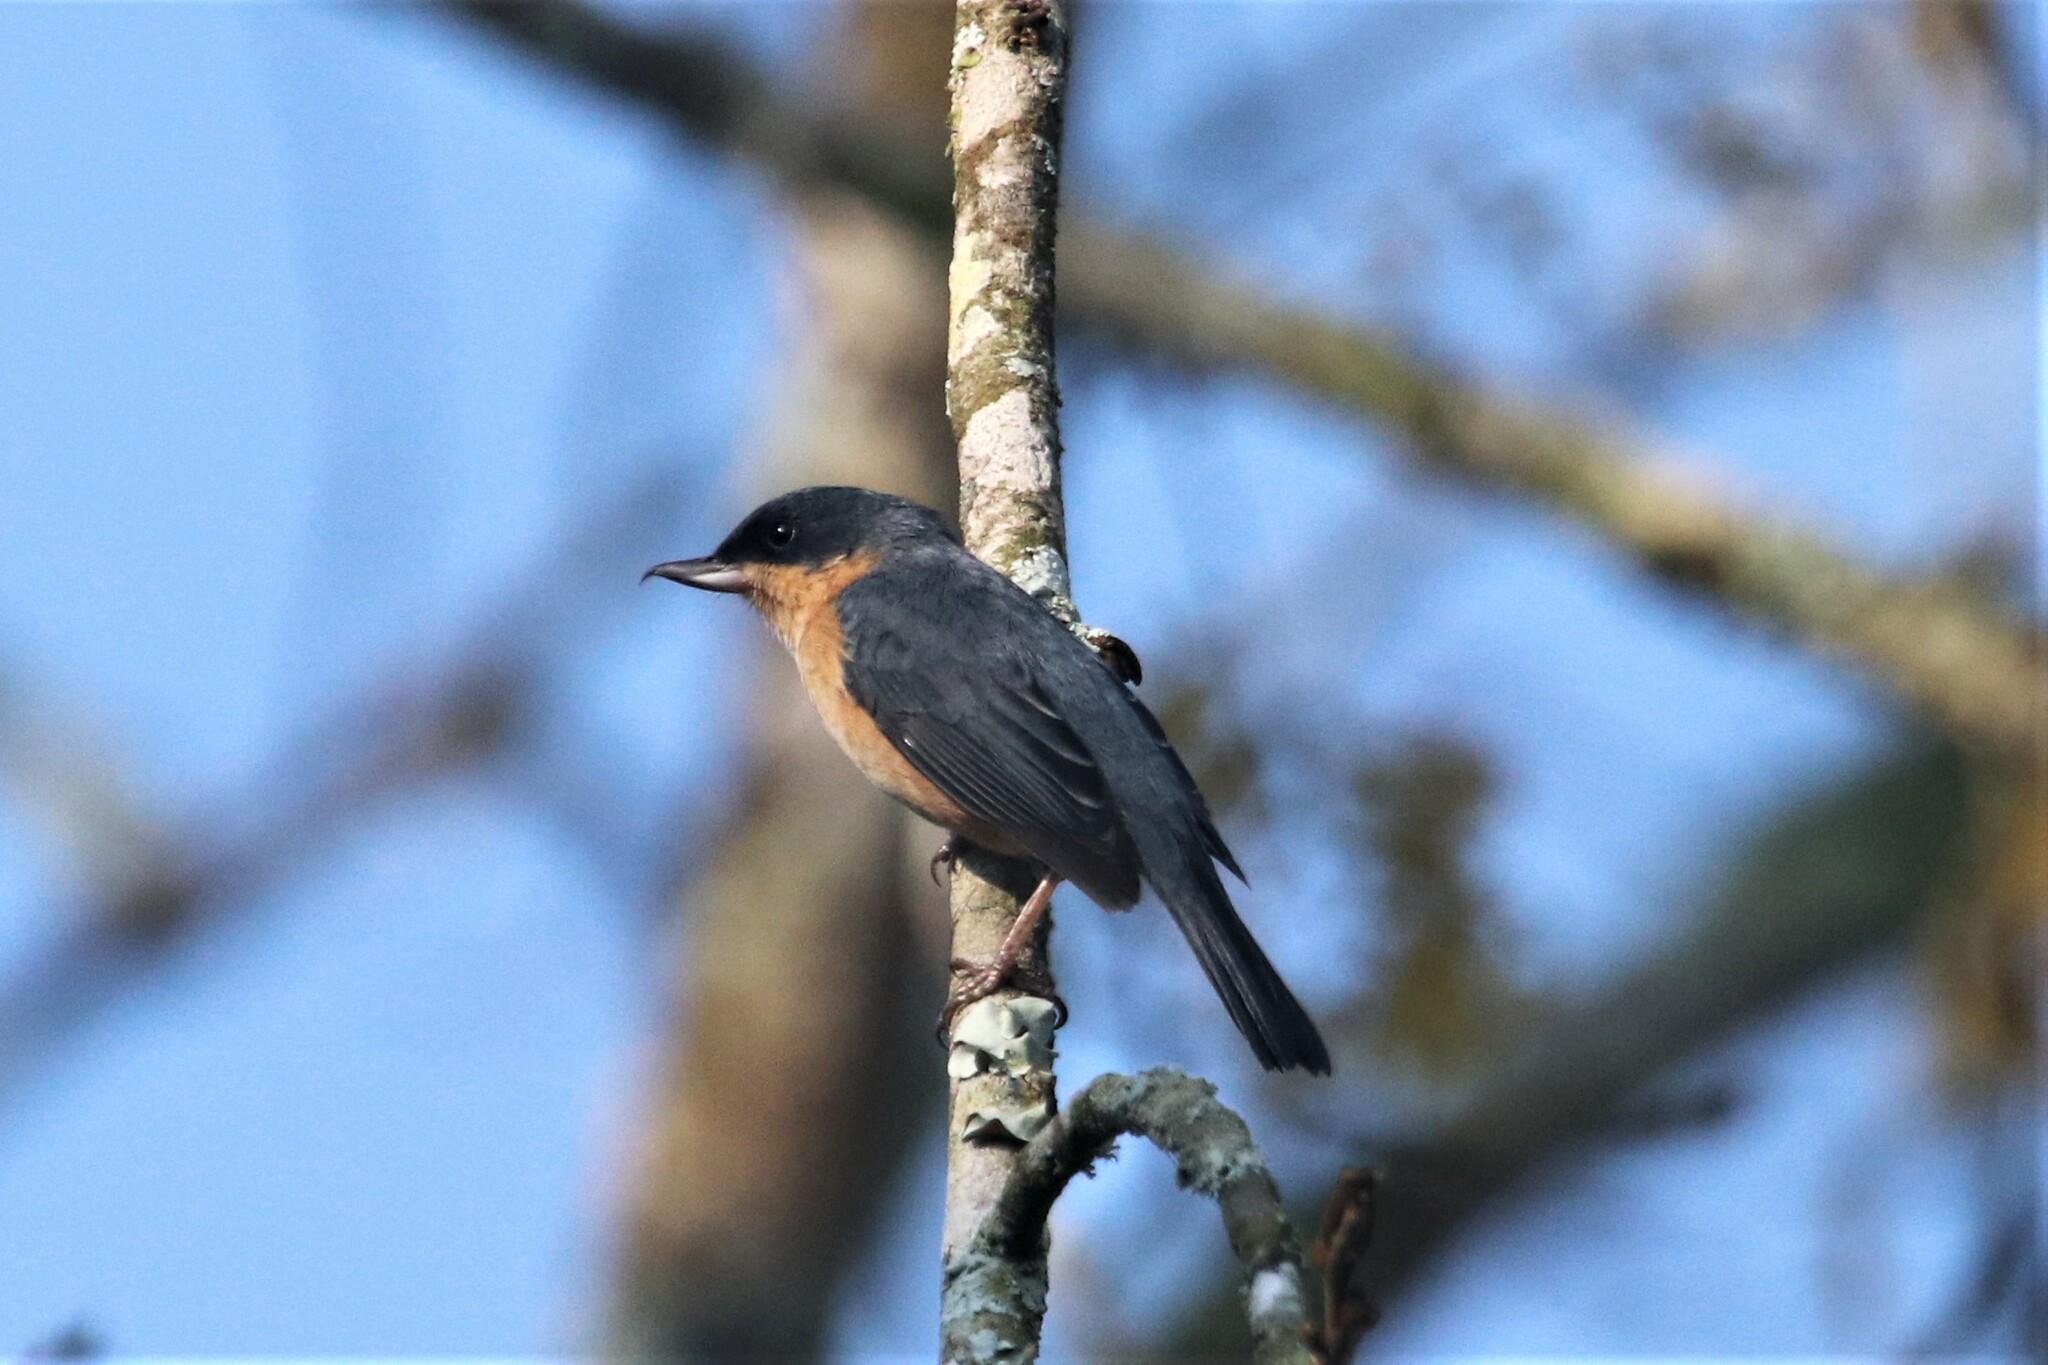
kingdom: Animalia
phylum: Chordata
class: Aves
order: Passeriformes
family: Thraupidae
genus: Diglossa
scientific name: Diglossa sittoides
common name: Rusty flowerpiercer
